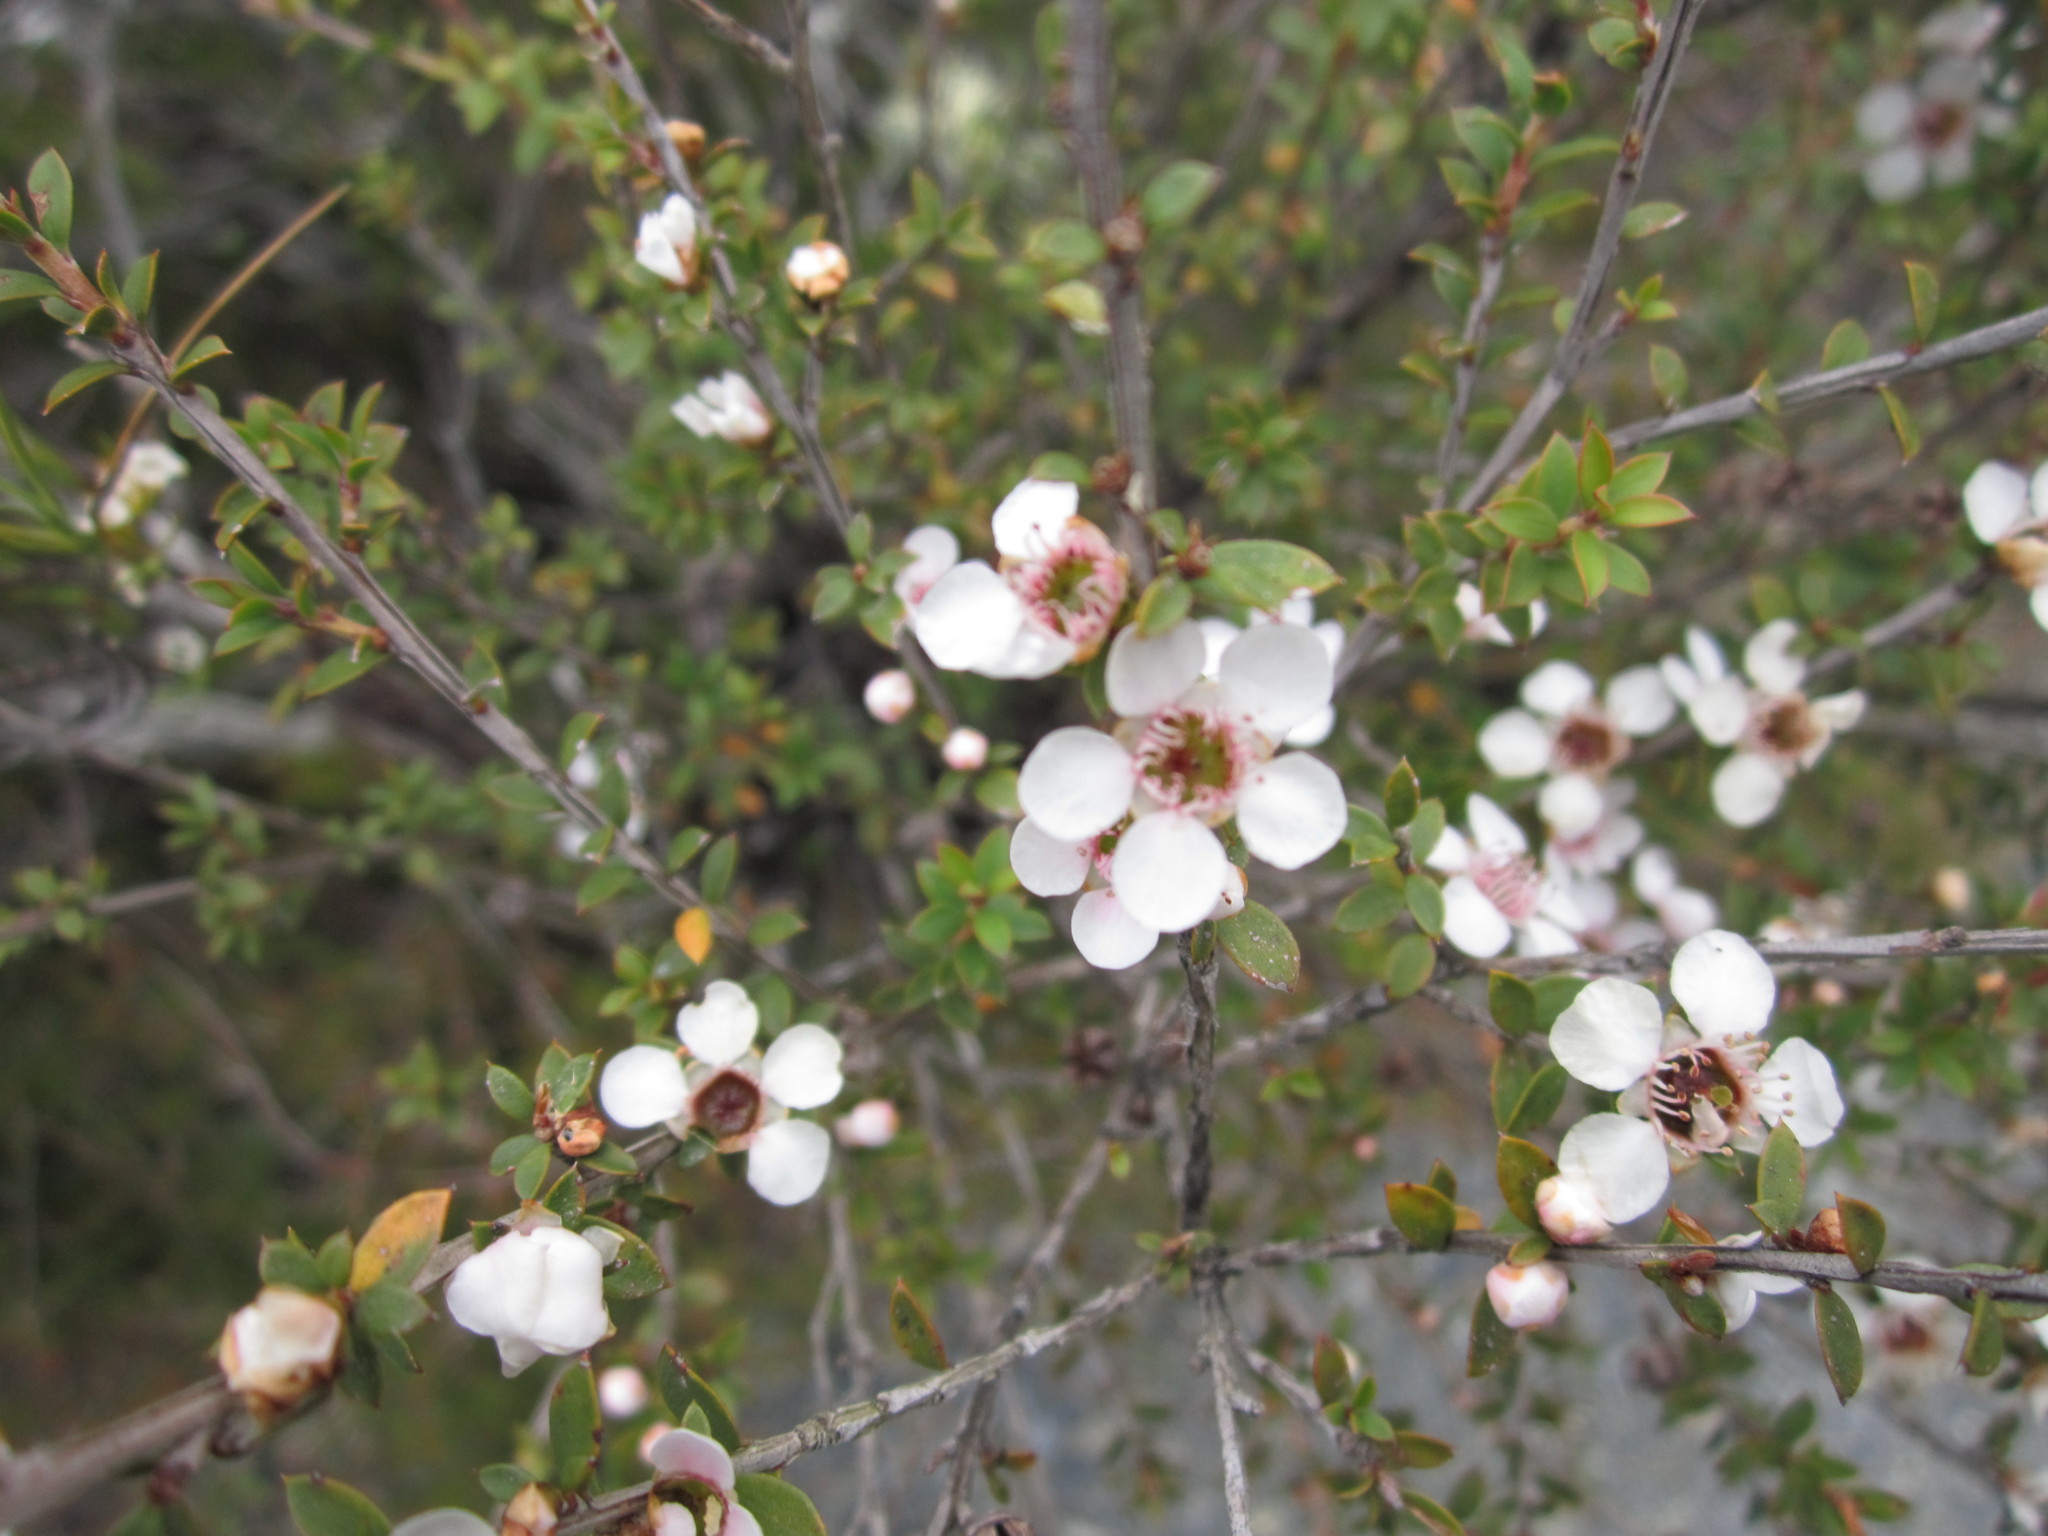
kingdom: Plantae
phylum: Tracheophyta
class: Magnoliopsida
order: Myrtales
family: Myrtaceae
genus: Leptospermum
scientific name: Leptospermum scoparium
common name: Broom tea-tree
